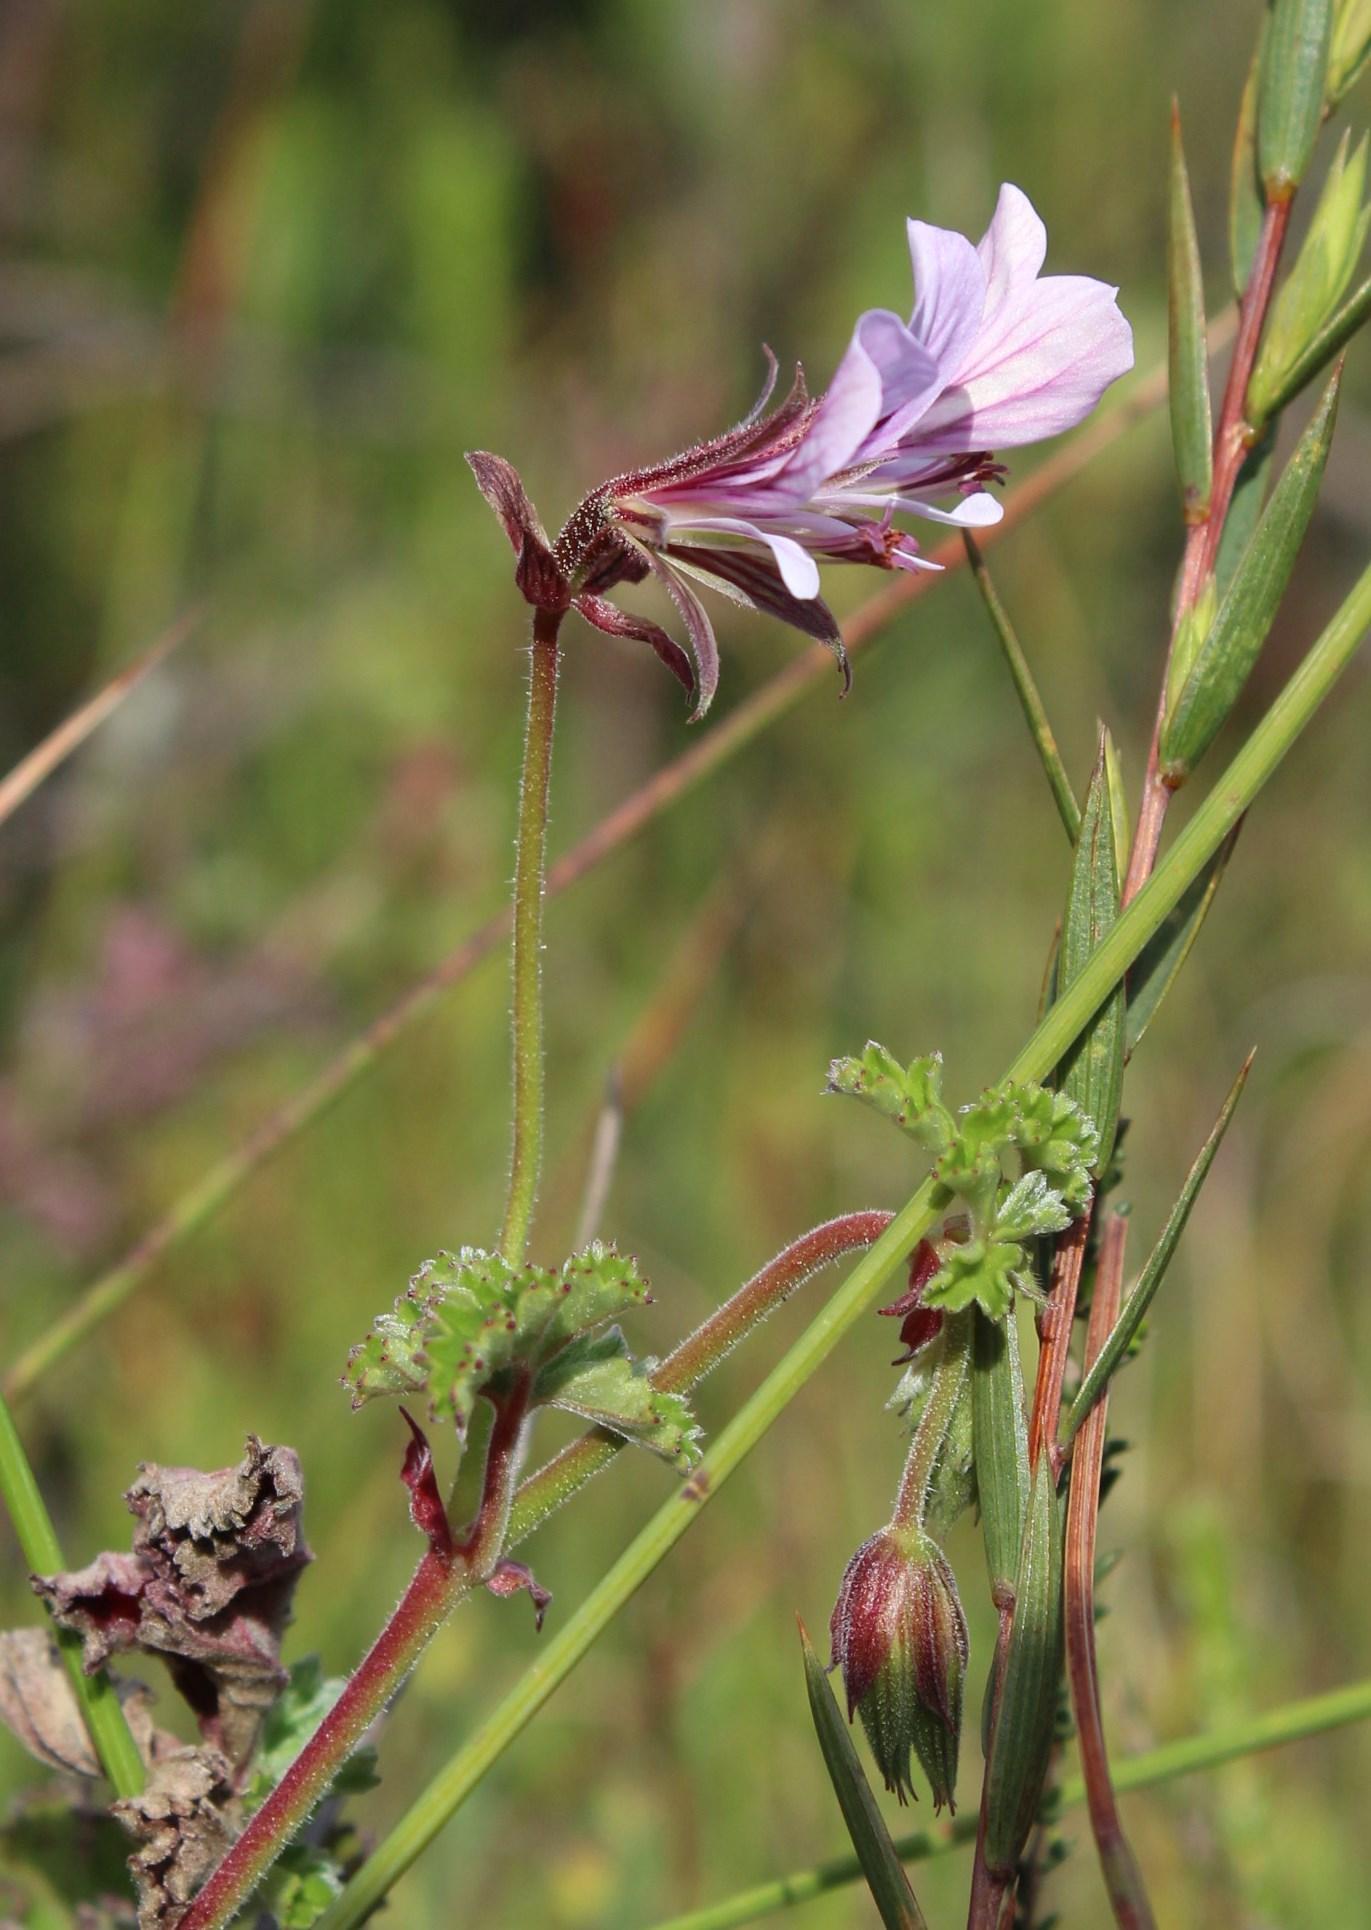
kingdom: Plantae
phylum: Tracheophyta
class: Magnoliopsida
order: Geraniales
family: Geraniaceae
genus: Pelargonium
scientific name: Pelargonium myrrhifolium
